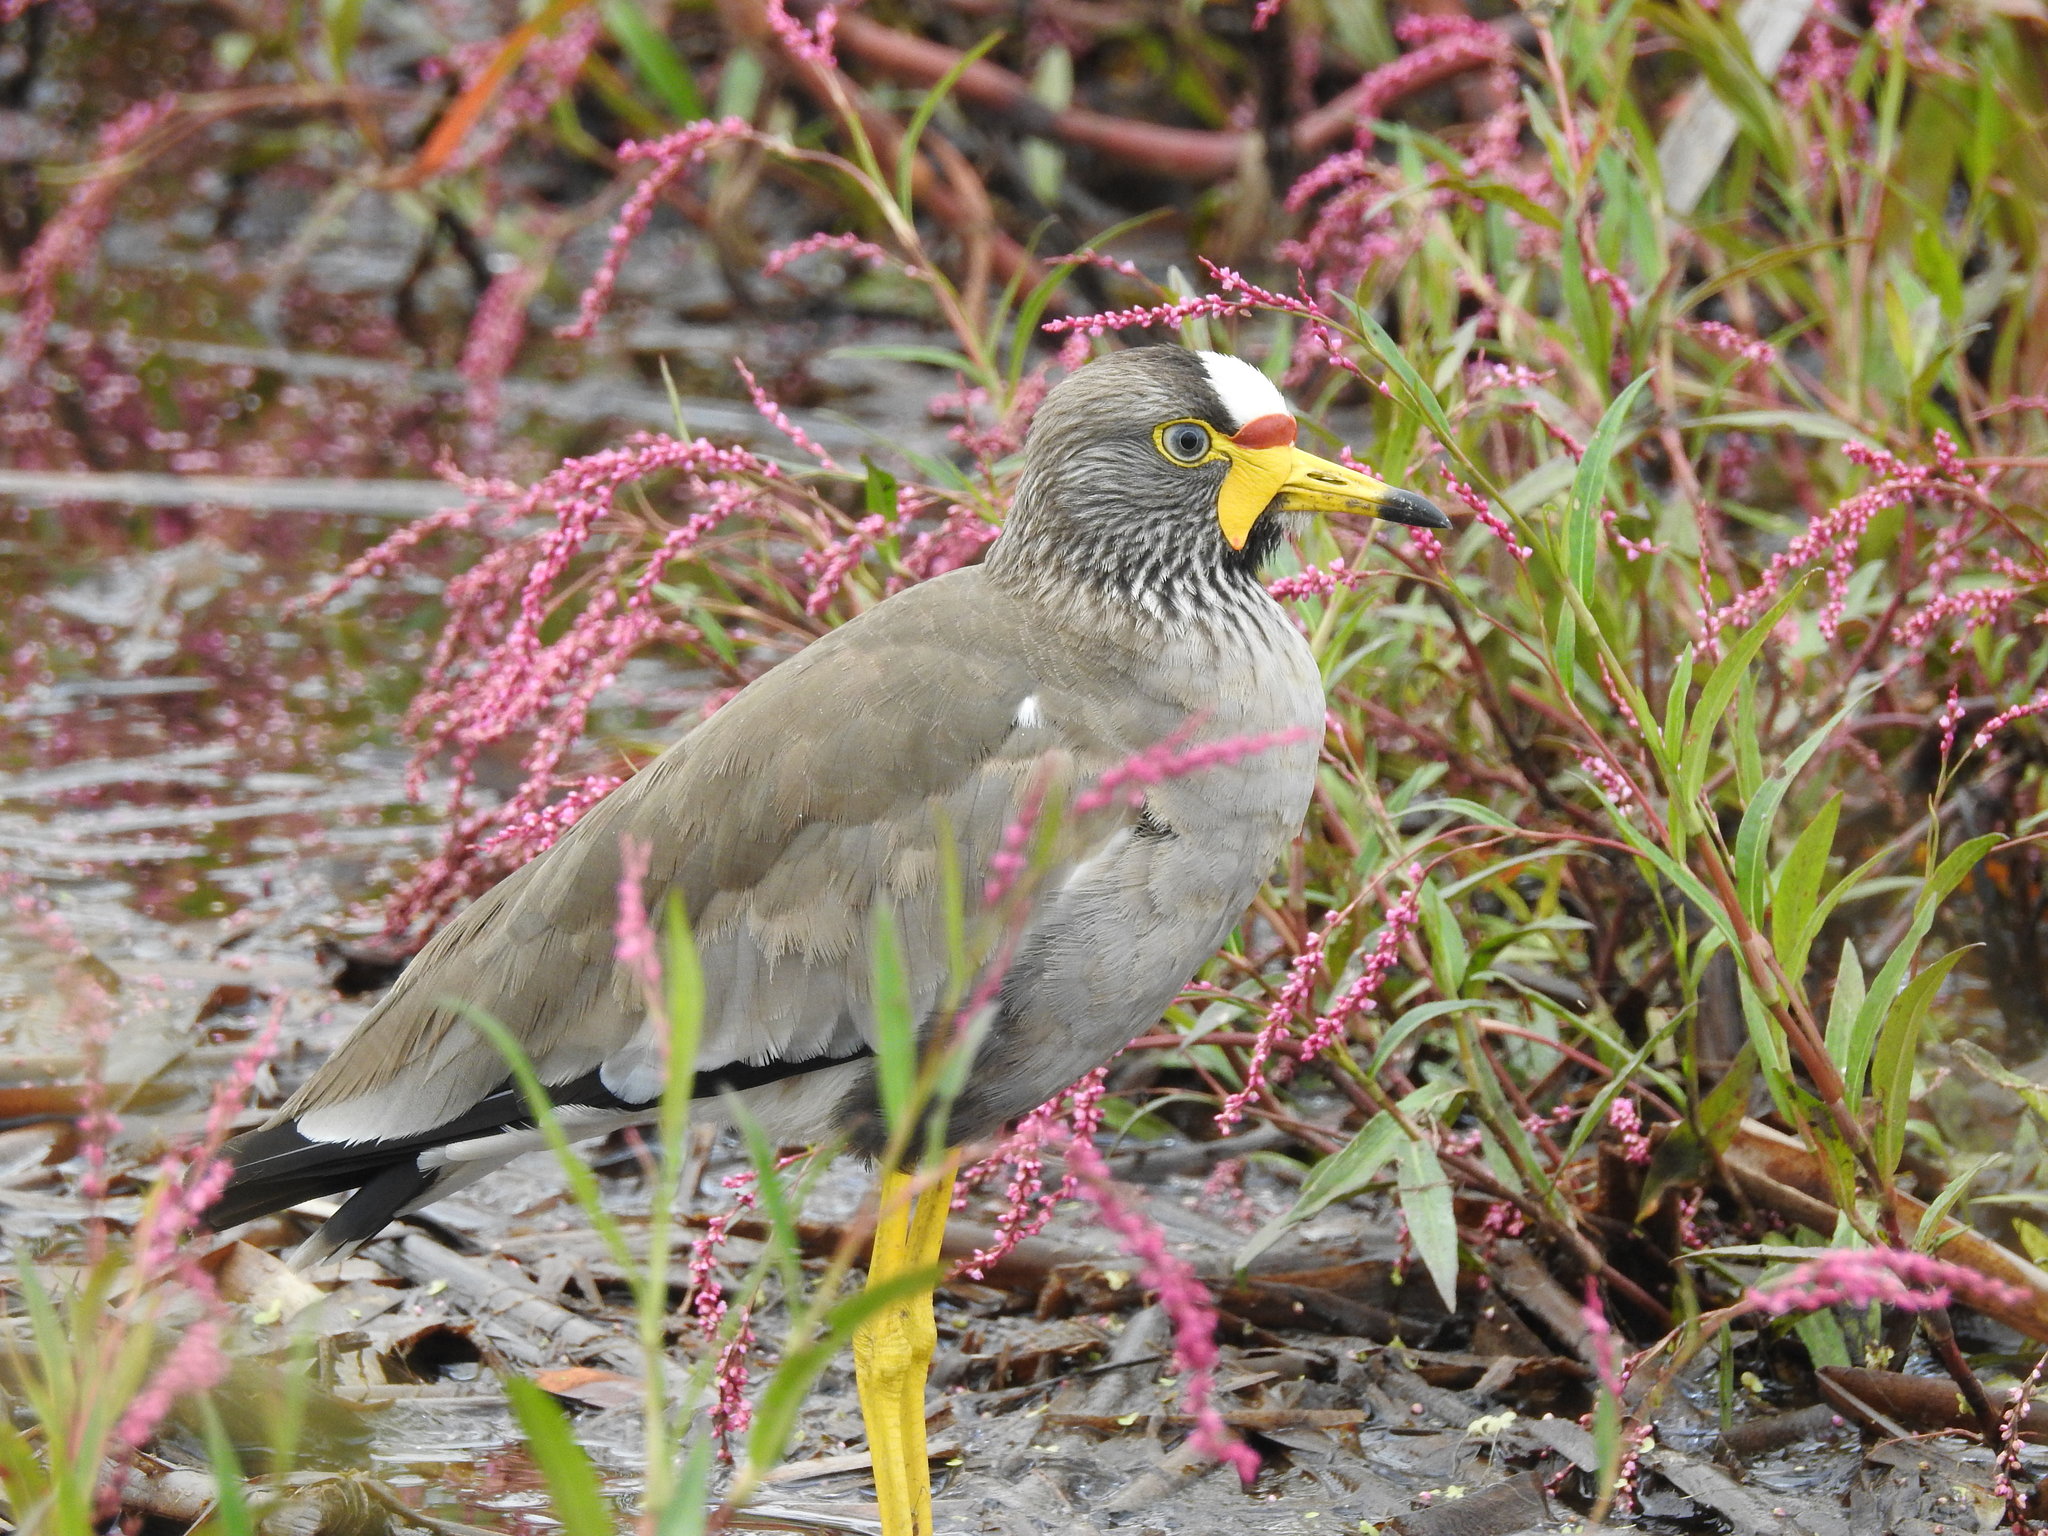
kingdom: Animalia
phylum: Chordata
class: Aves
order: Charadriiformes
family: Charadriidae
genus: Vanellus
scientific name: Vanellus senegallus
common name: African wattled lapwing
